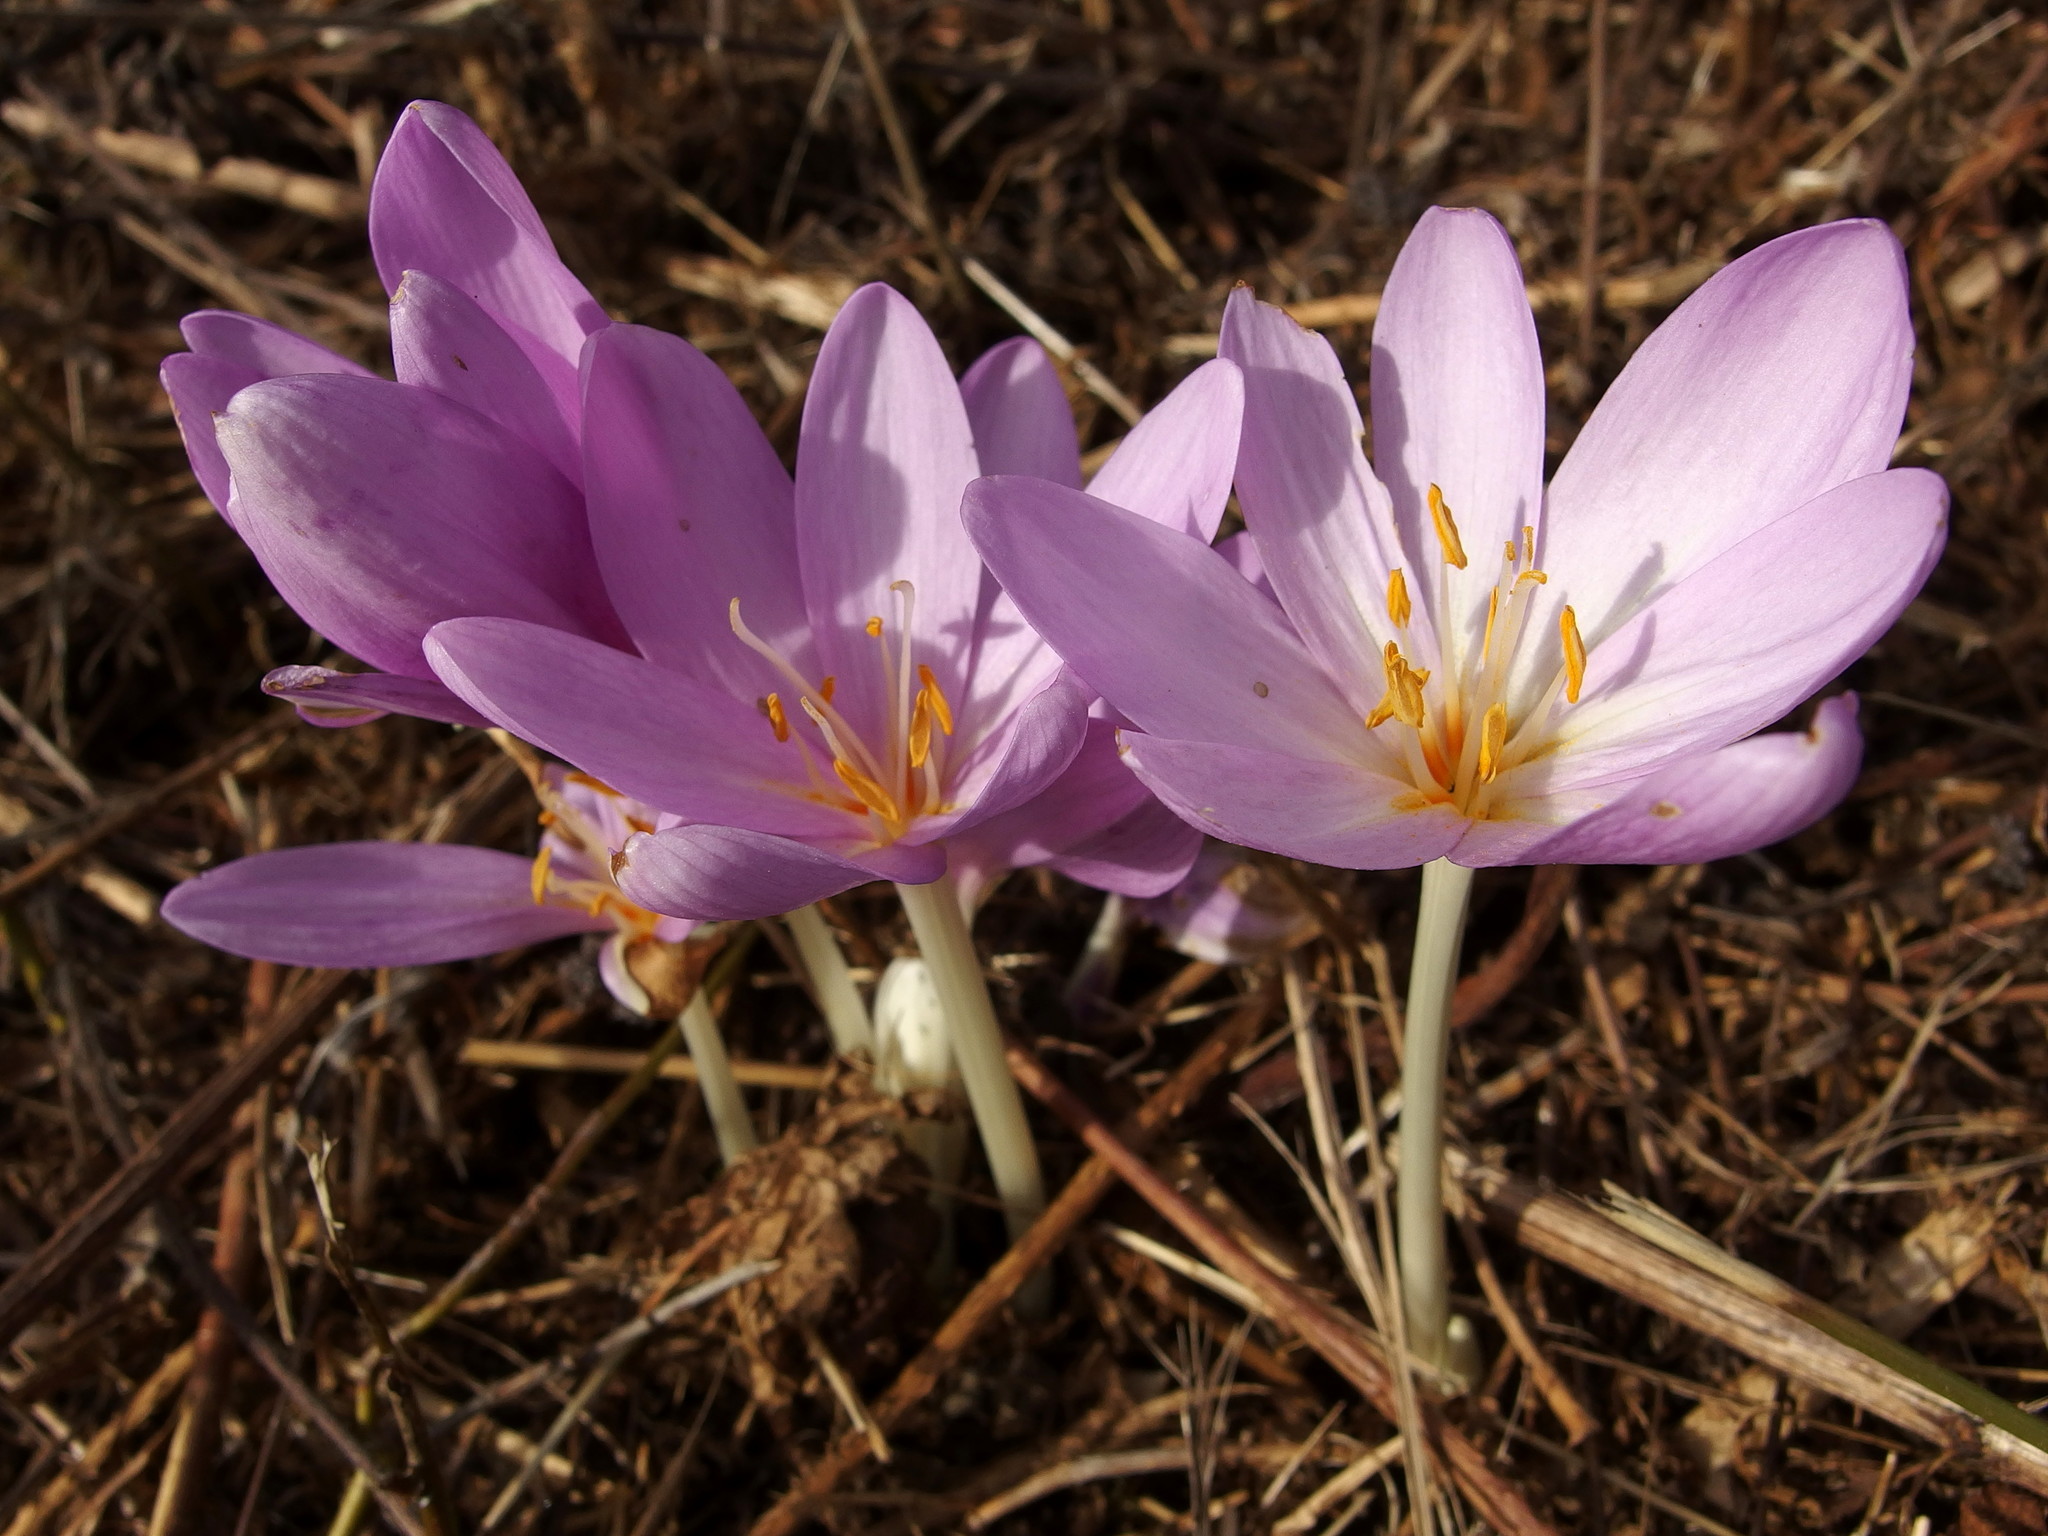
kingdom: Plantae
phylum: Tracheophyta
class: Liliopsida
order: Liliales
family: Colchicaceae
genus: Colchicum
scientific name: Colchicum autumnale
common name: Autumn crocus
